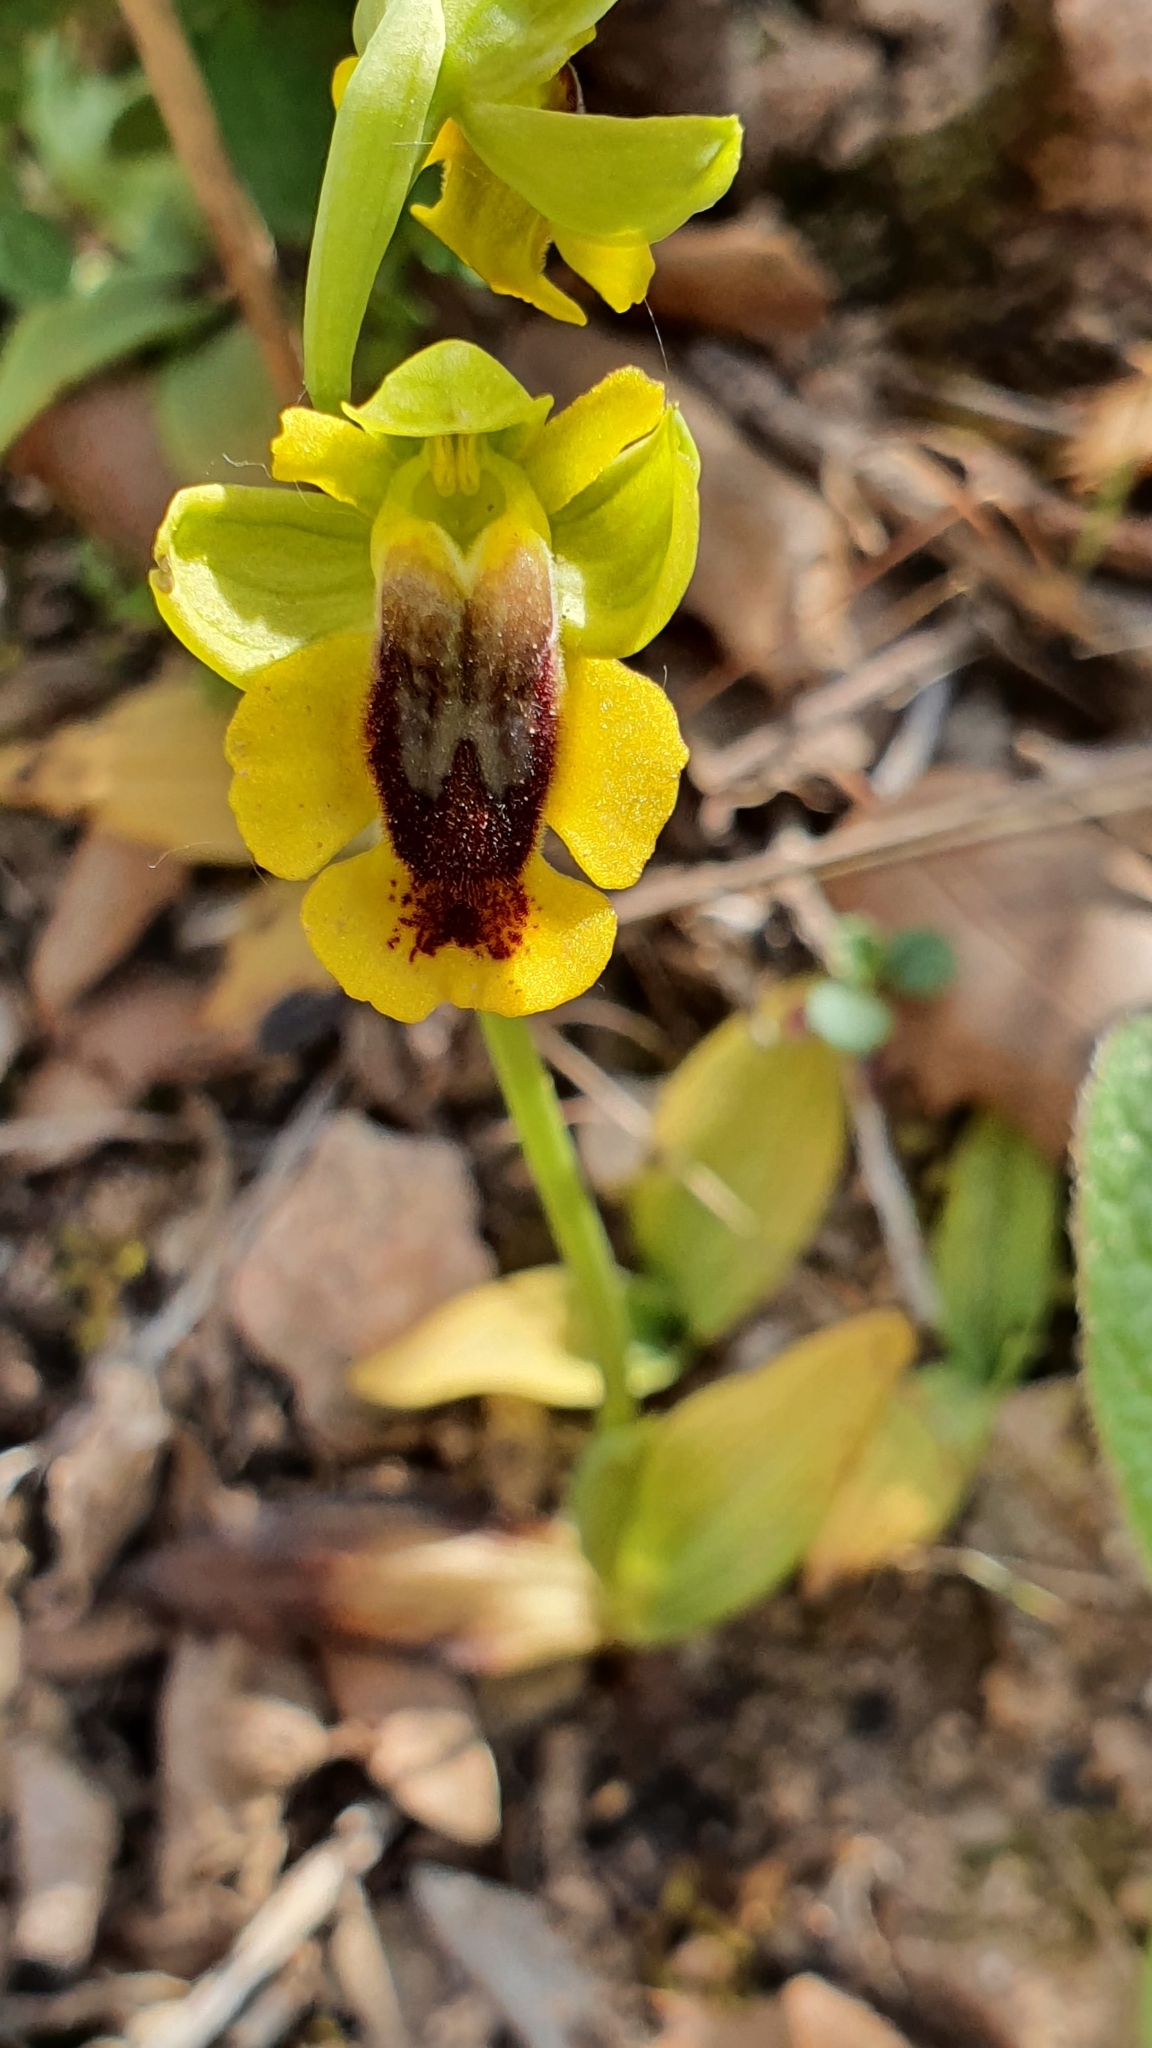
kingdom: Plantae
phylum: Tracheophyta
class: Liliopsida
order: Asparagales
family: Orchidaceae
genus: Ophrys
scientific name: Ophrys lutea
